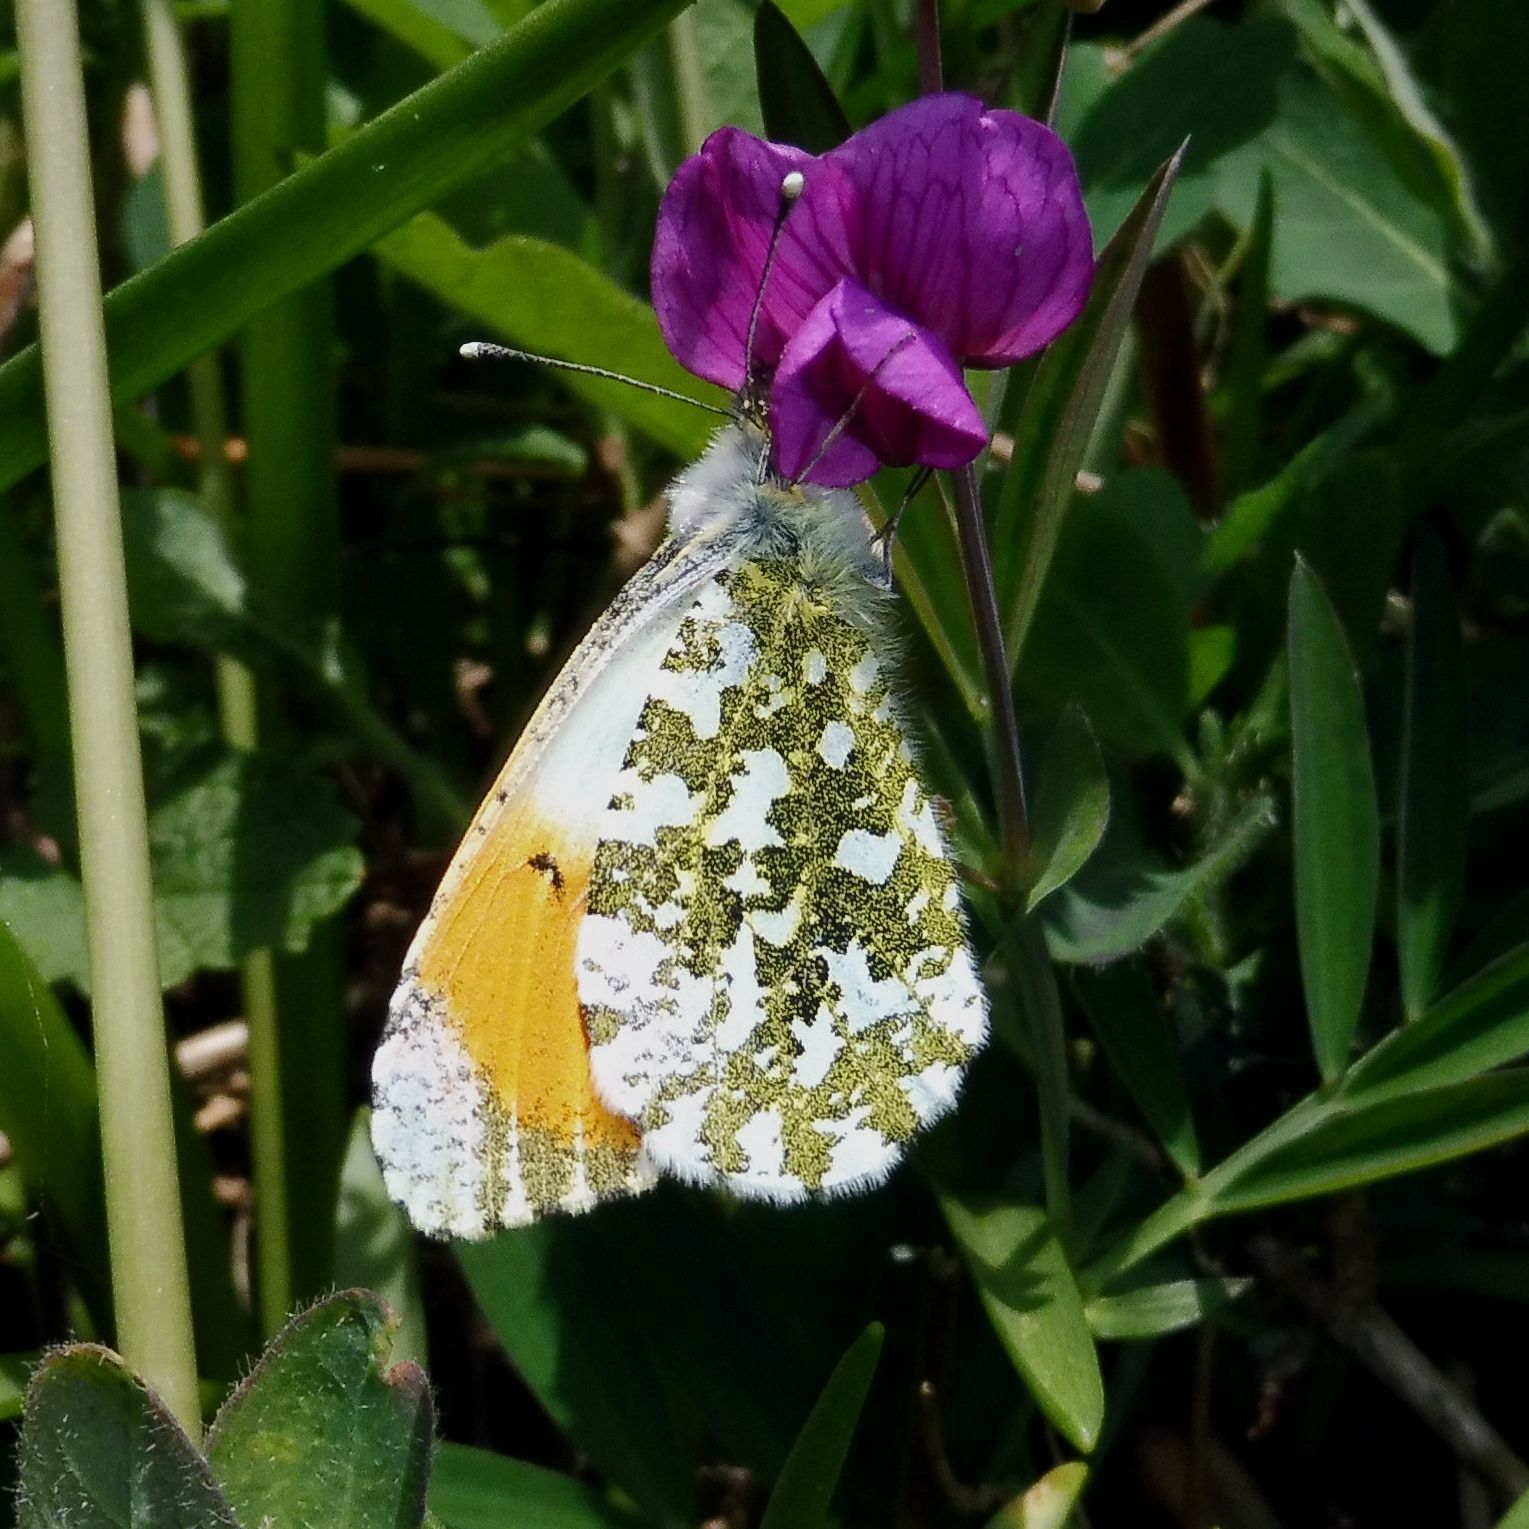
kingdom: Animalia
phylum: Arthropoda
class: Insecta
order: Lepidoptera
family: Pieridae
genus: Anthocharis
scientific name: Anthocharis cardamines
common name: Orange-tip
